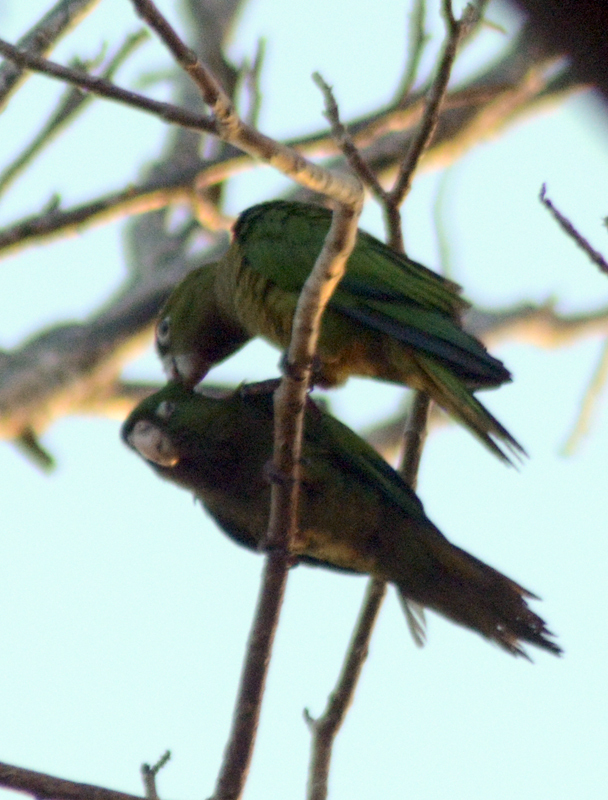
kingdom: Animalia
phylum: Chordata
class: Aves
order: Psittaciformes
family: Psittacidae
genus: Aratinga
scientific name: Aratinga nana
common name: Olive-throated parakeet
